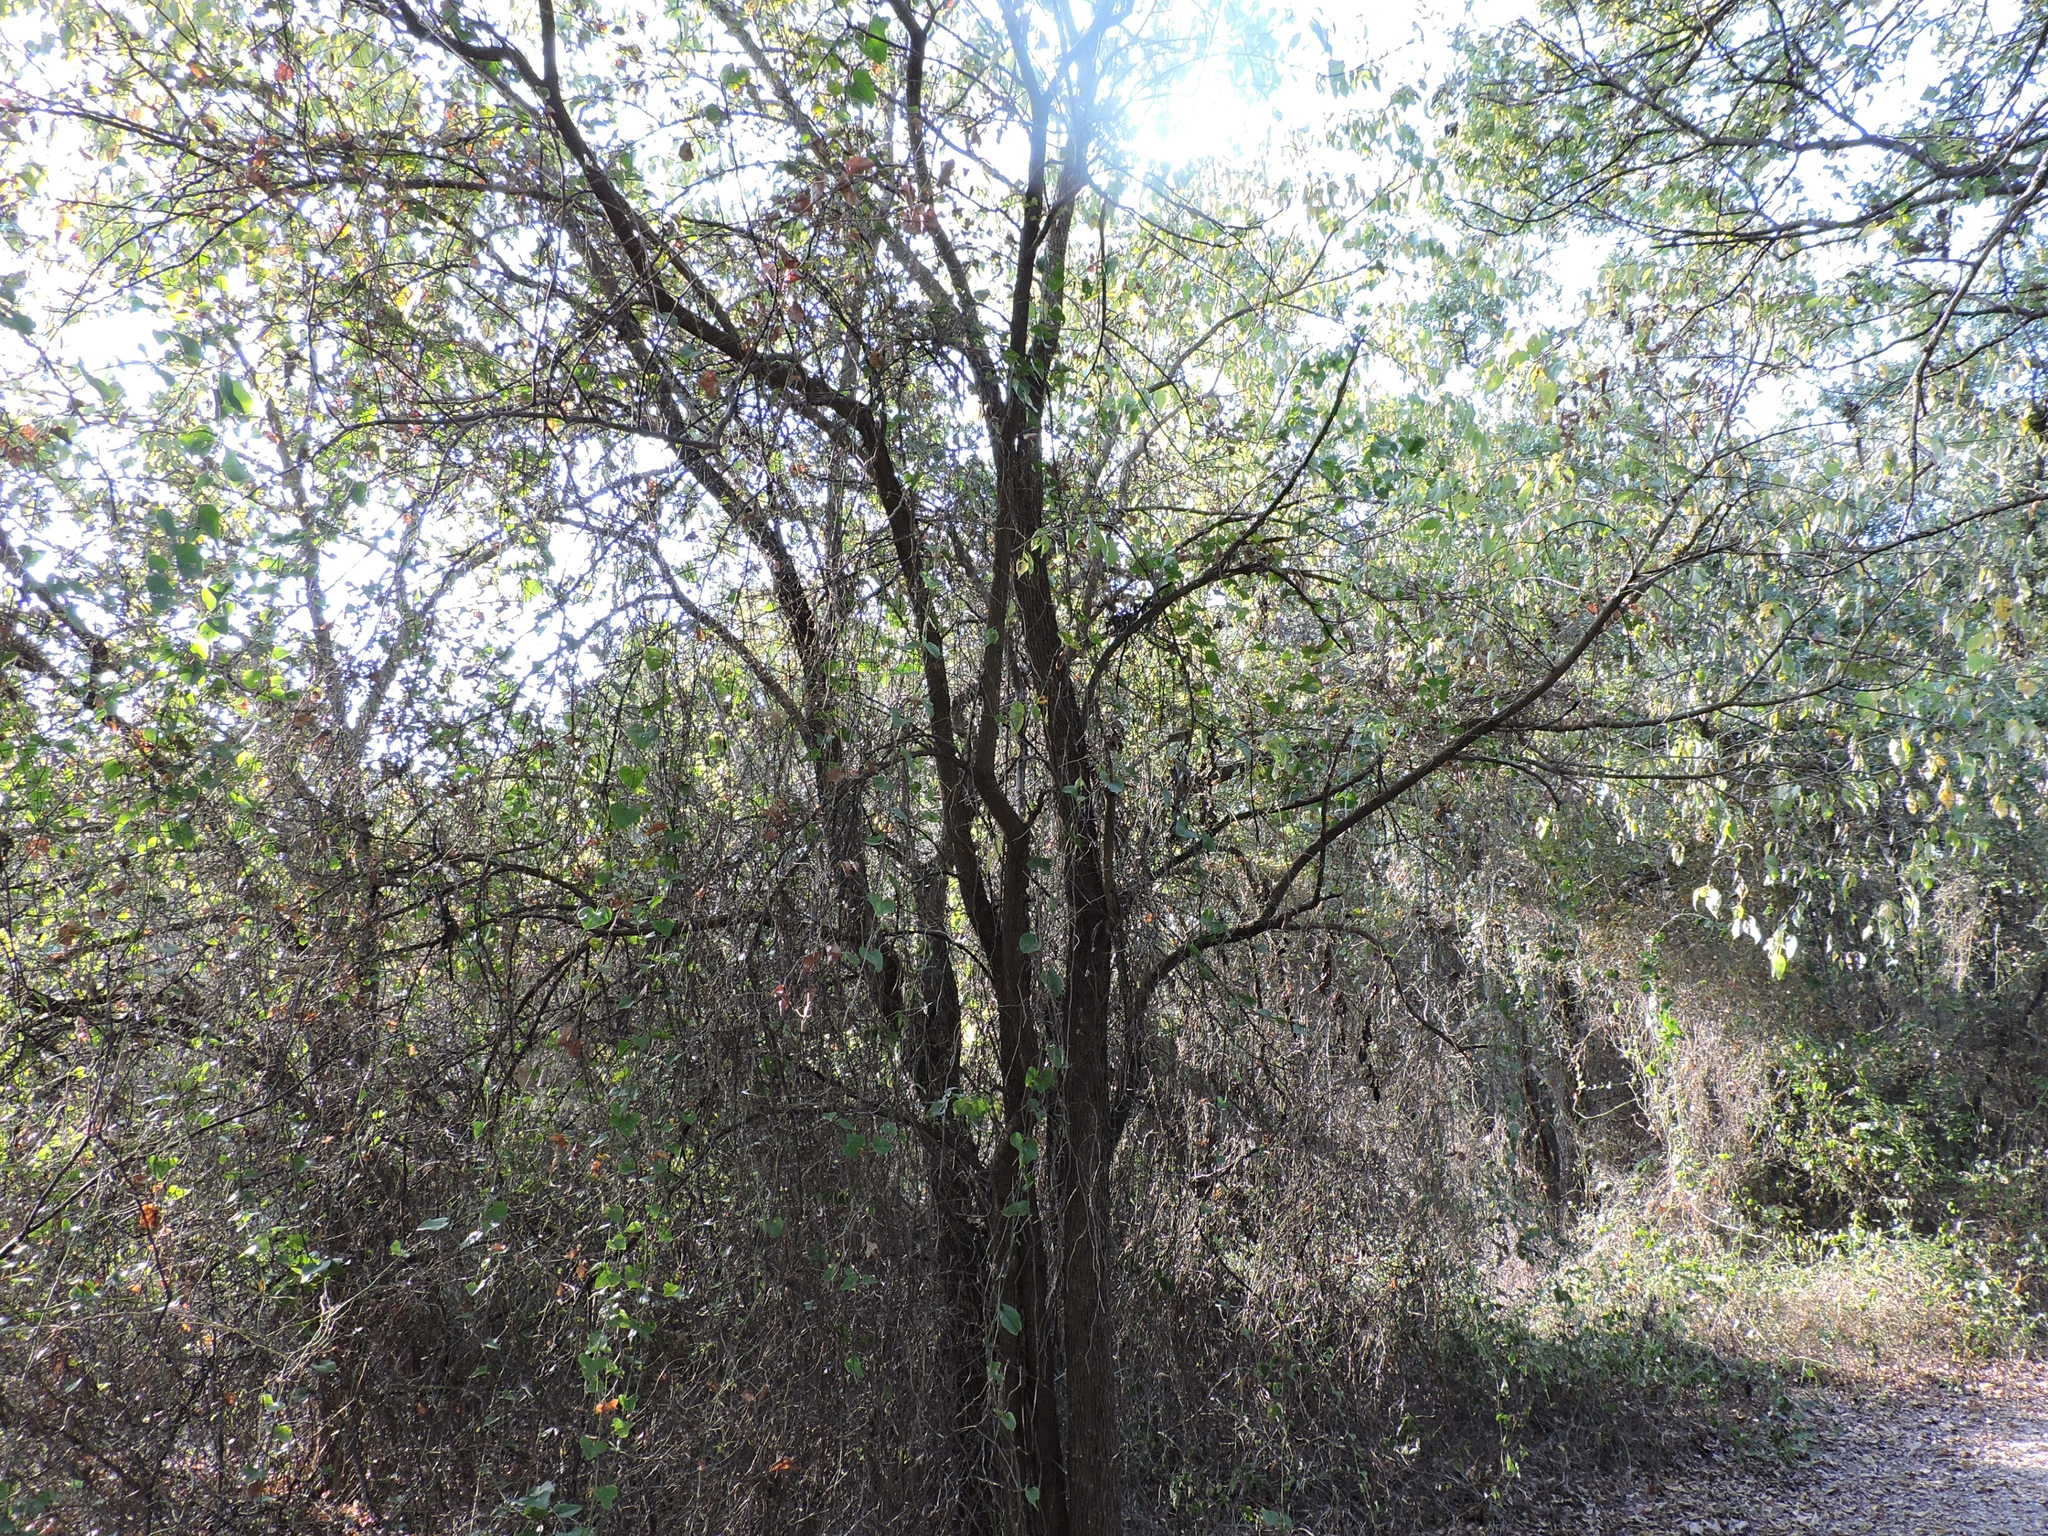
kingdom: Plantae
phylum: Tracheophyta
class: Magnoliopsida
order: Rosales
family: Moraceae
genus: Maclura
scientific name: Maclura pomifera
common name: Osage-orange
